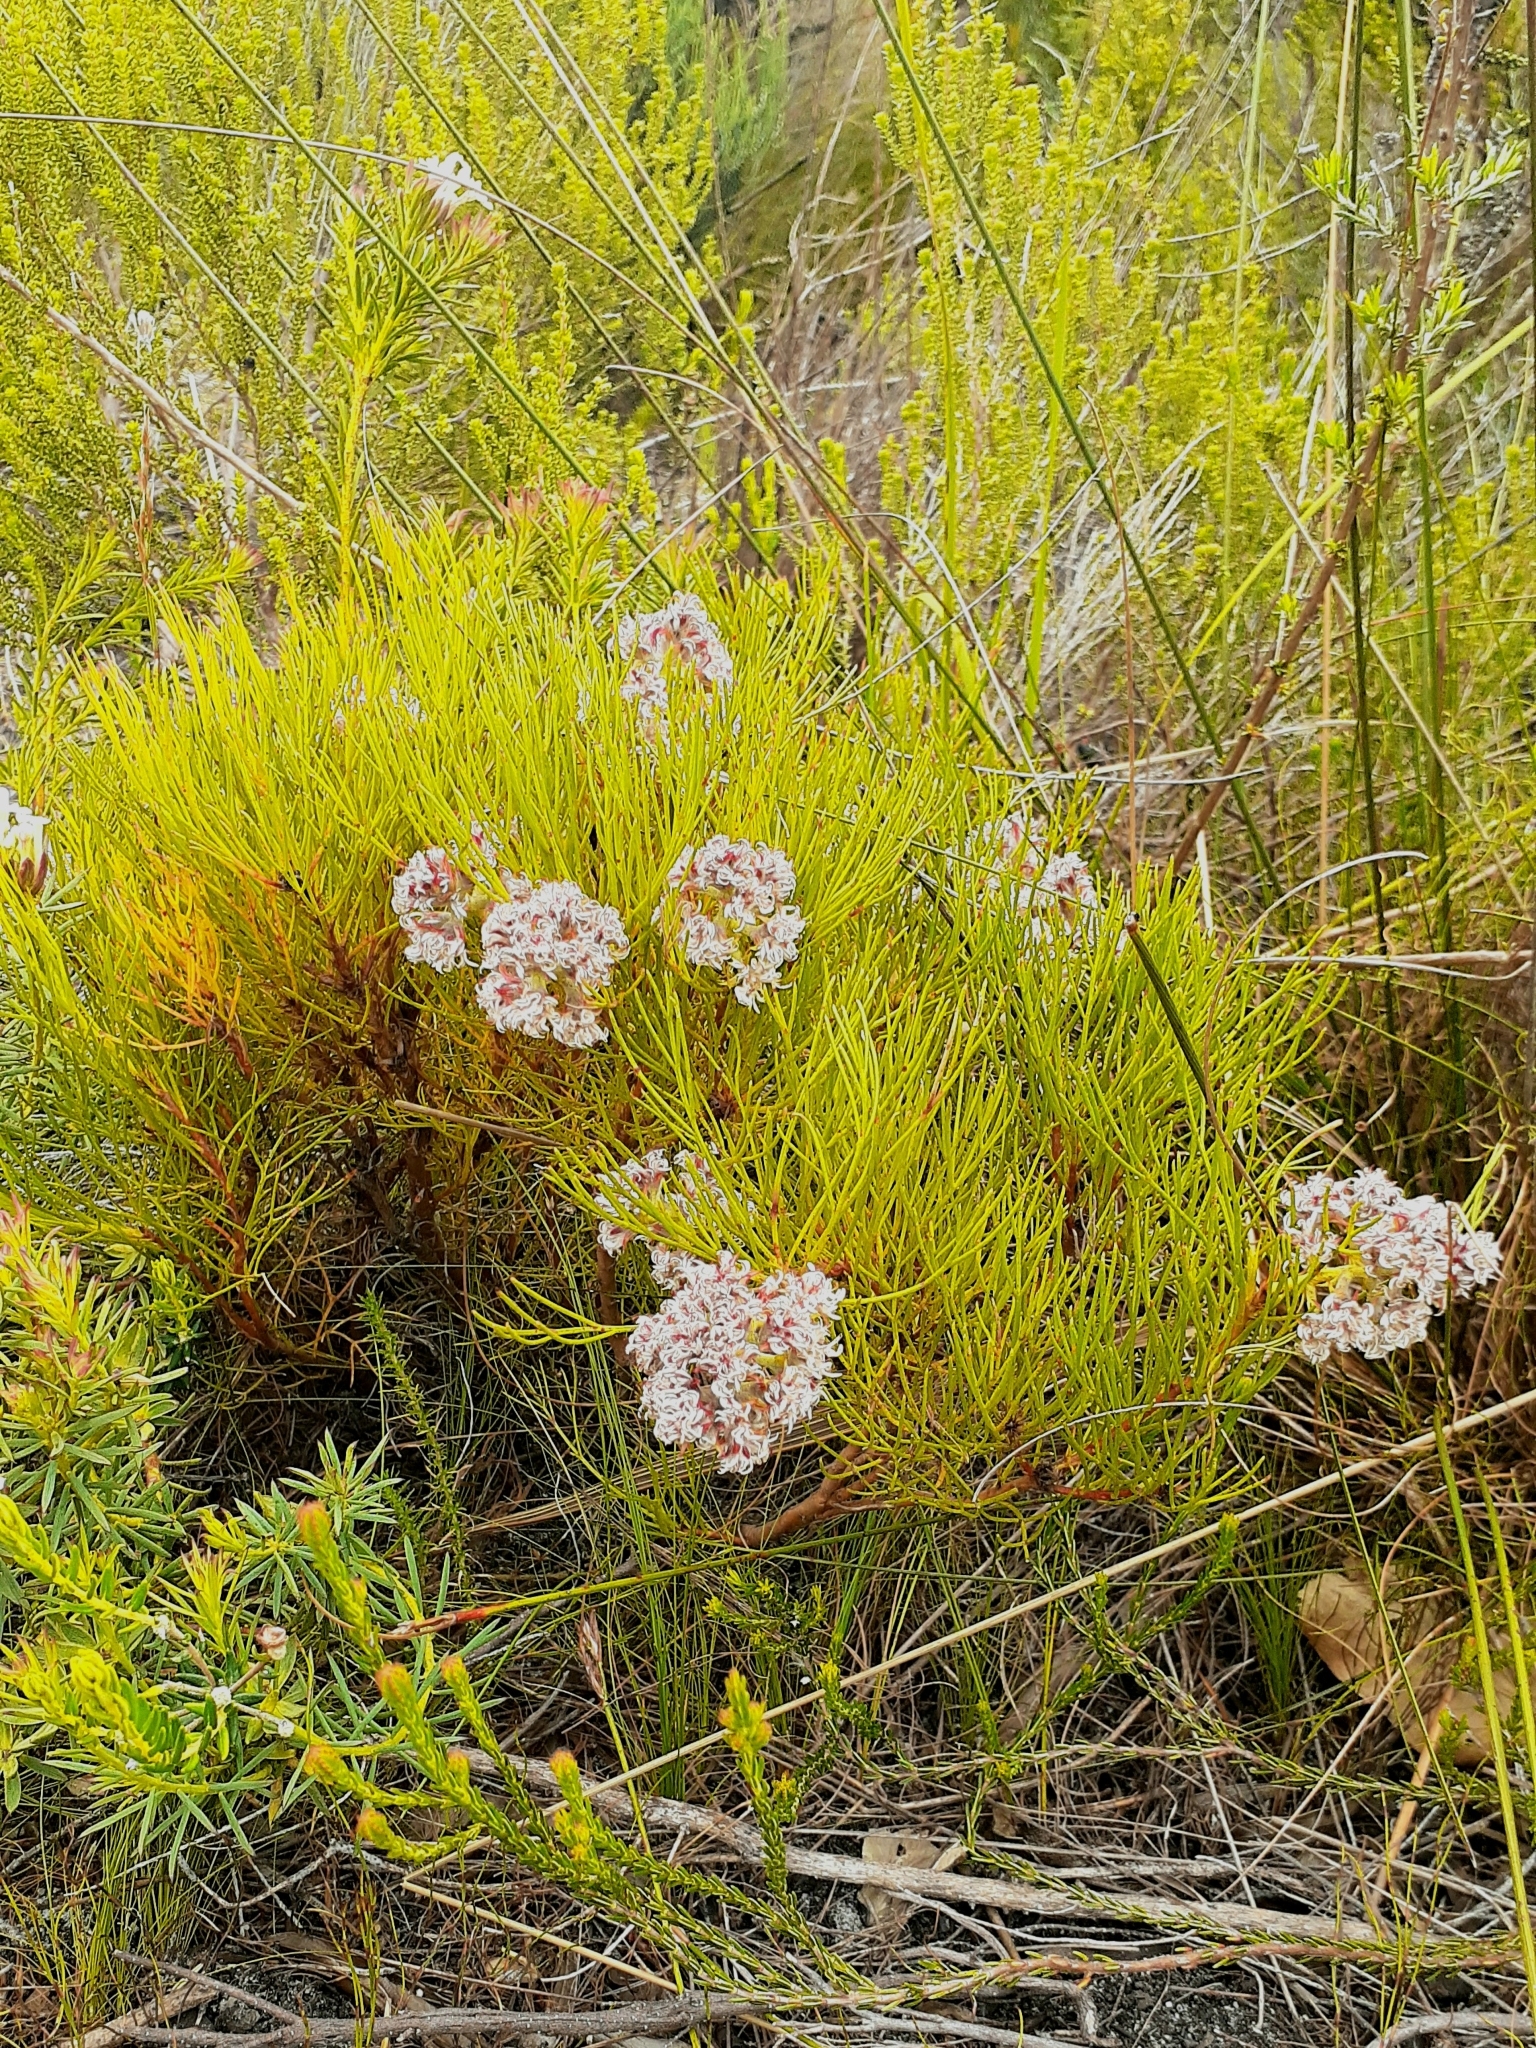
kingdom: Plantae
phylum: Tracheophyta
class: Magnoliopsida
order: Proteales
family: Proteaceae
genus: Serruria
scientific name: Serruria rubricaulis
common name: Red-stem spiderhead
